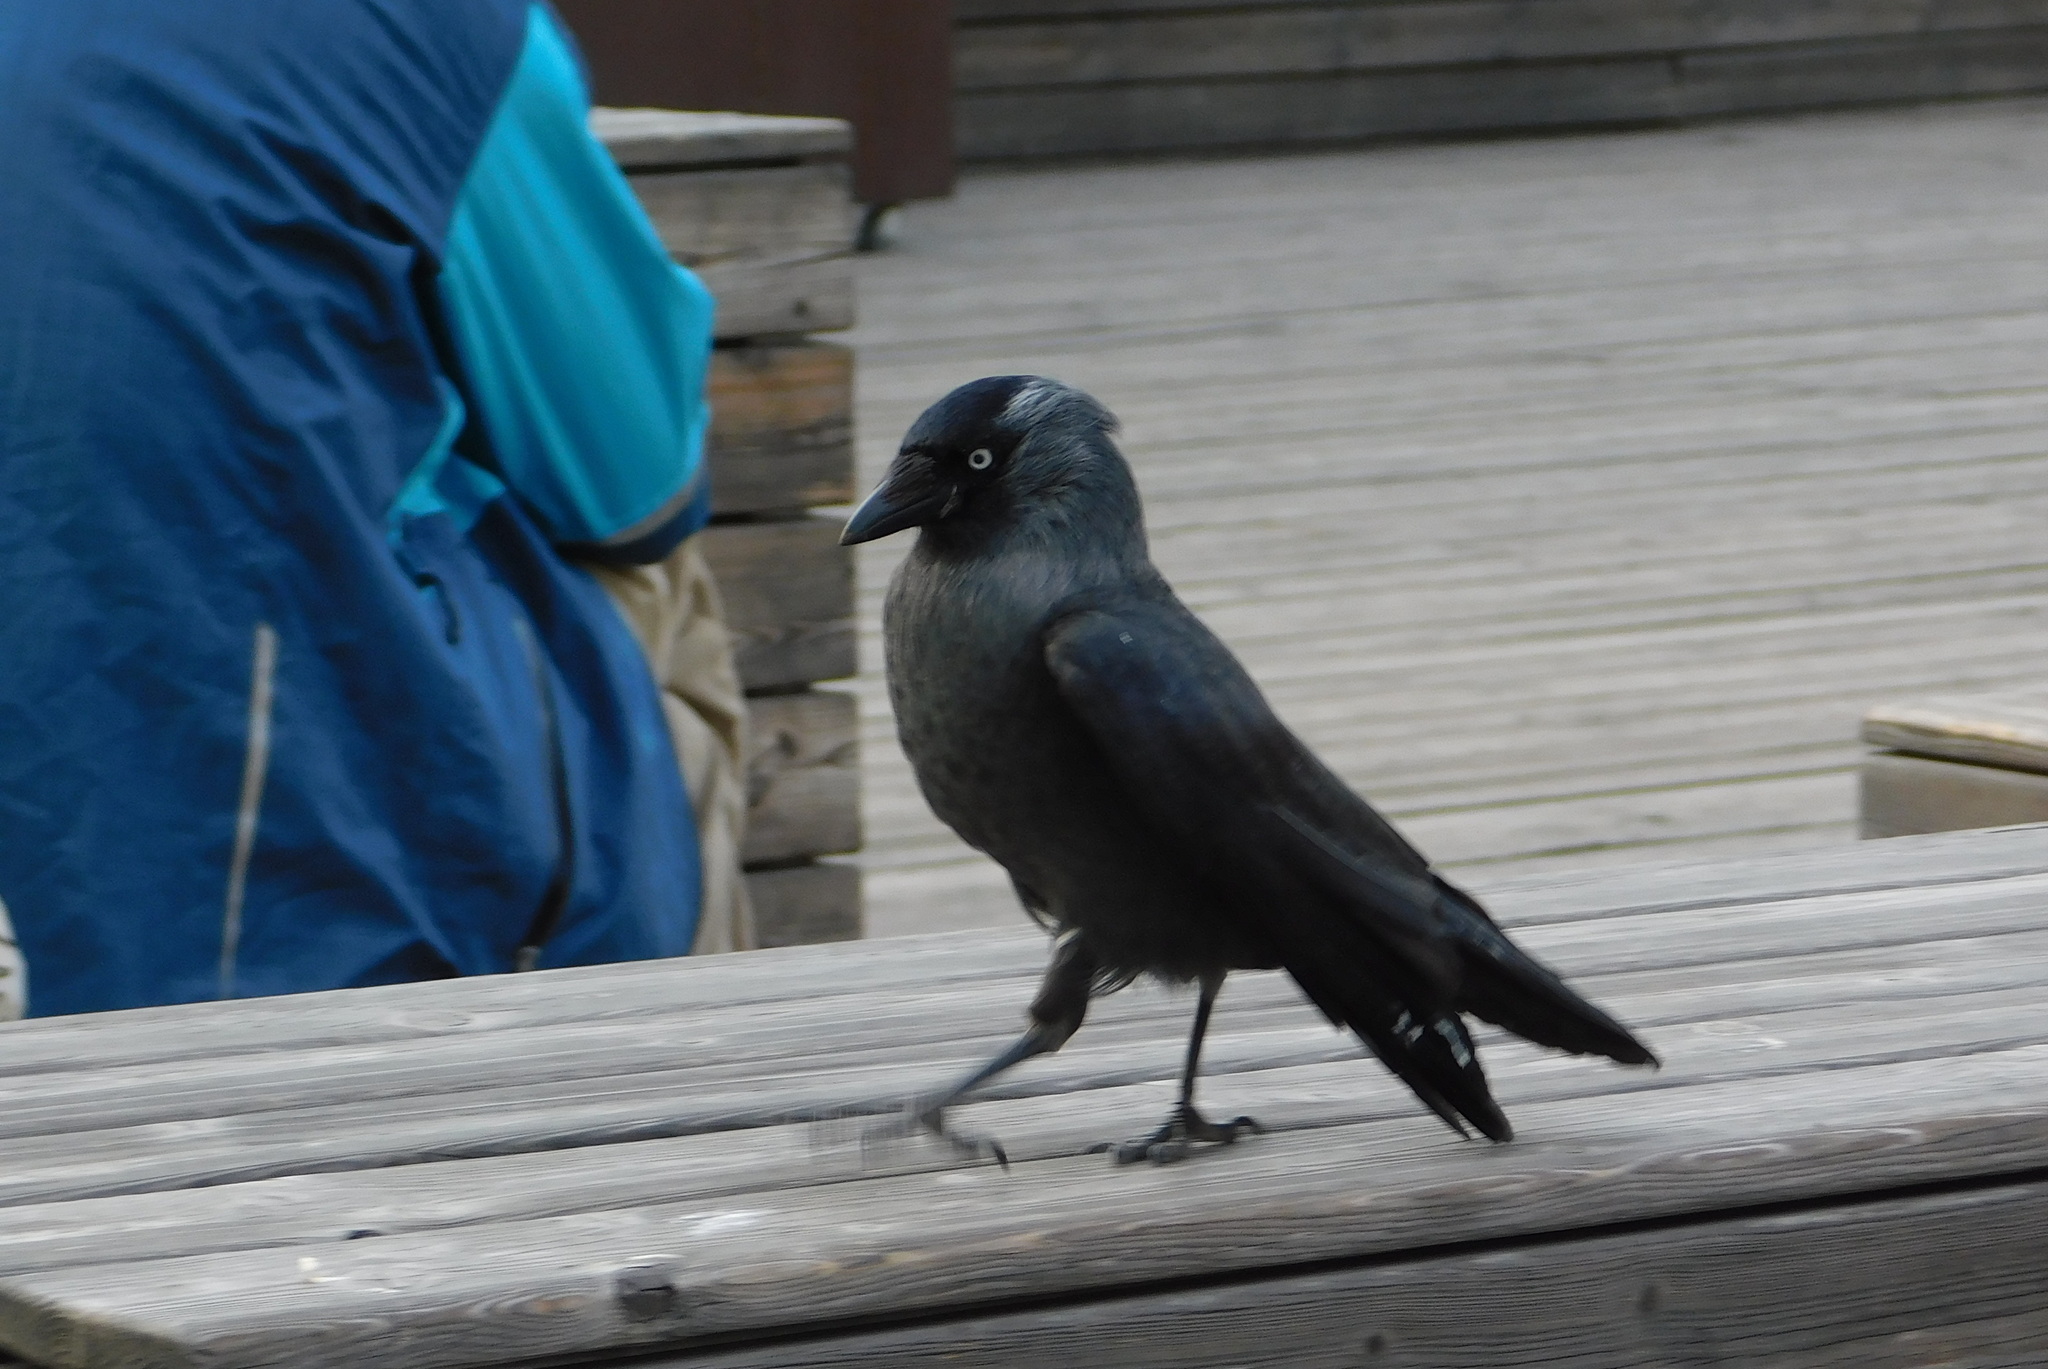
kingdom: Animalia
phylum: Chordata
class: Aves
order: Passeriformes
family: Corvidae
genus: Coloeus
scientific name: Coloeus monedula
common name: Western jackdaw
